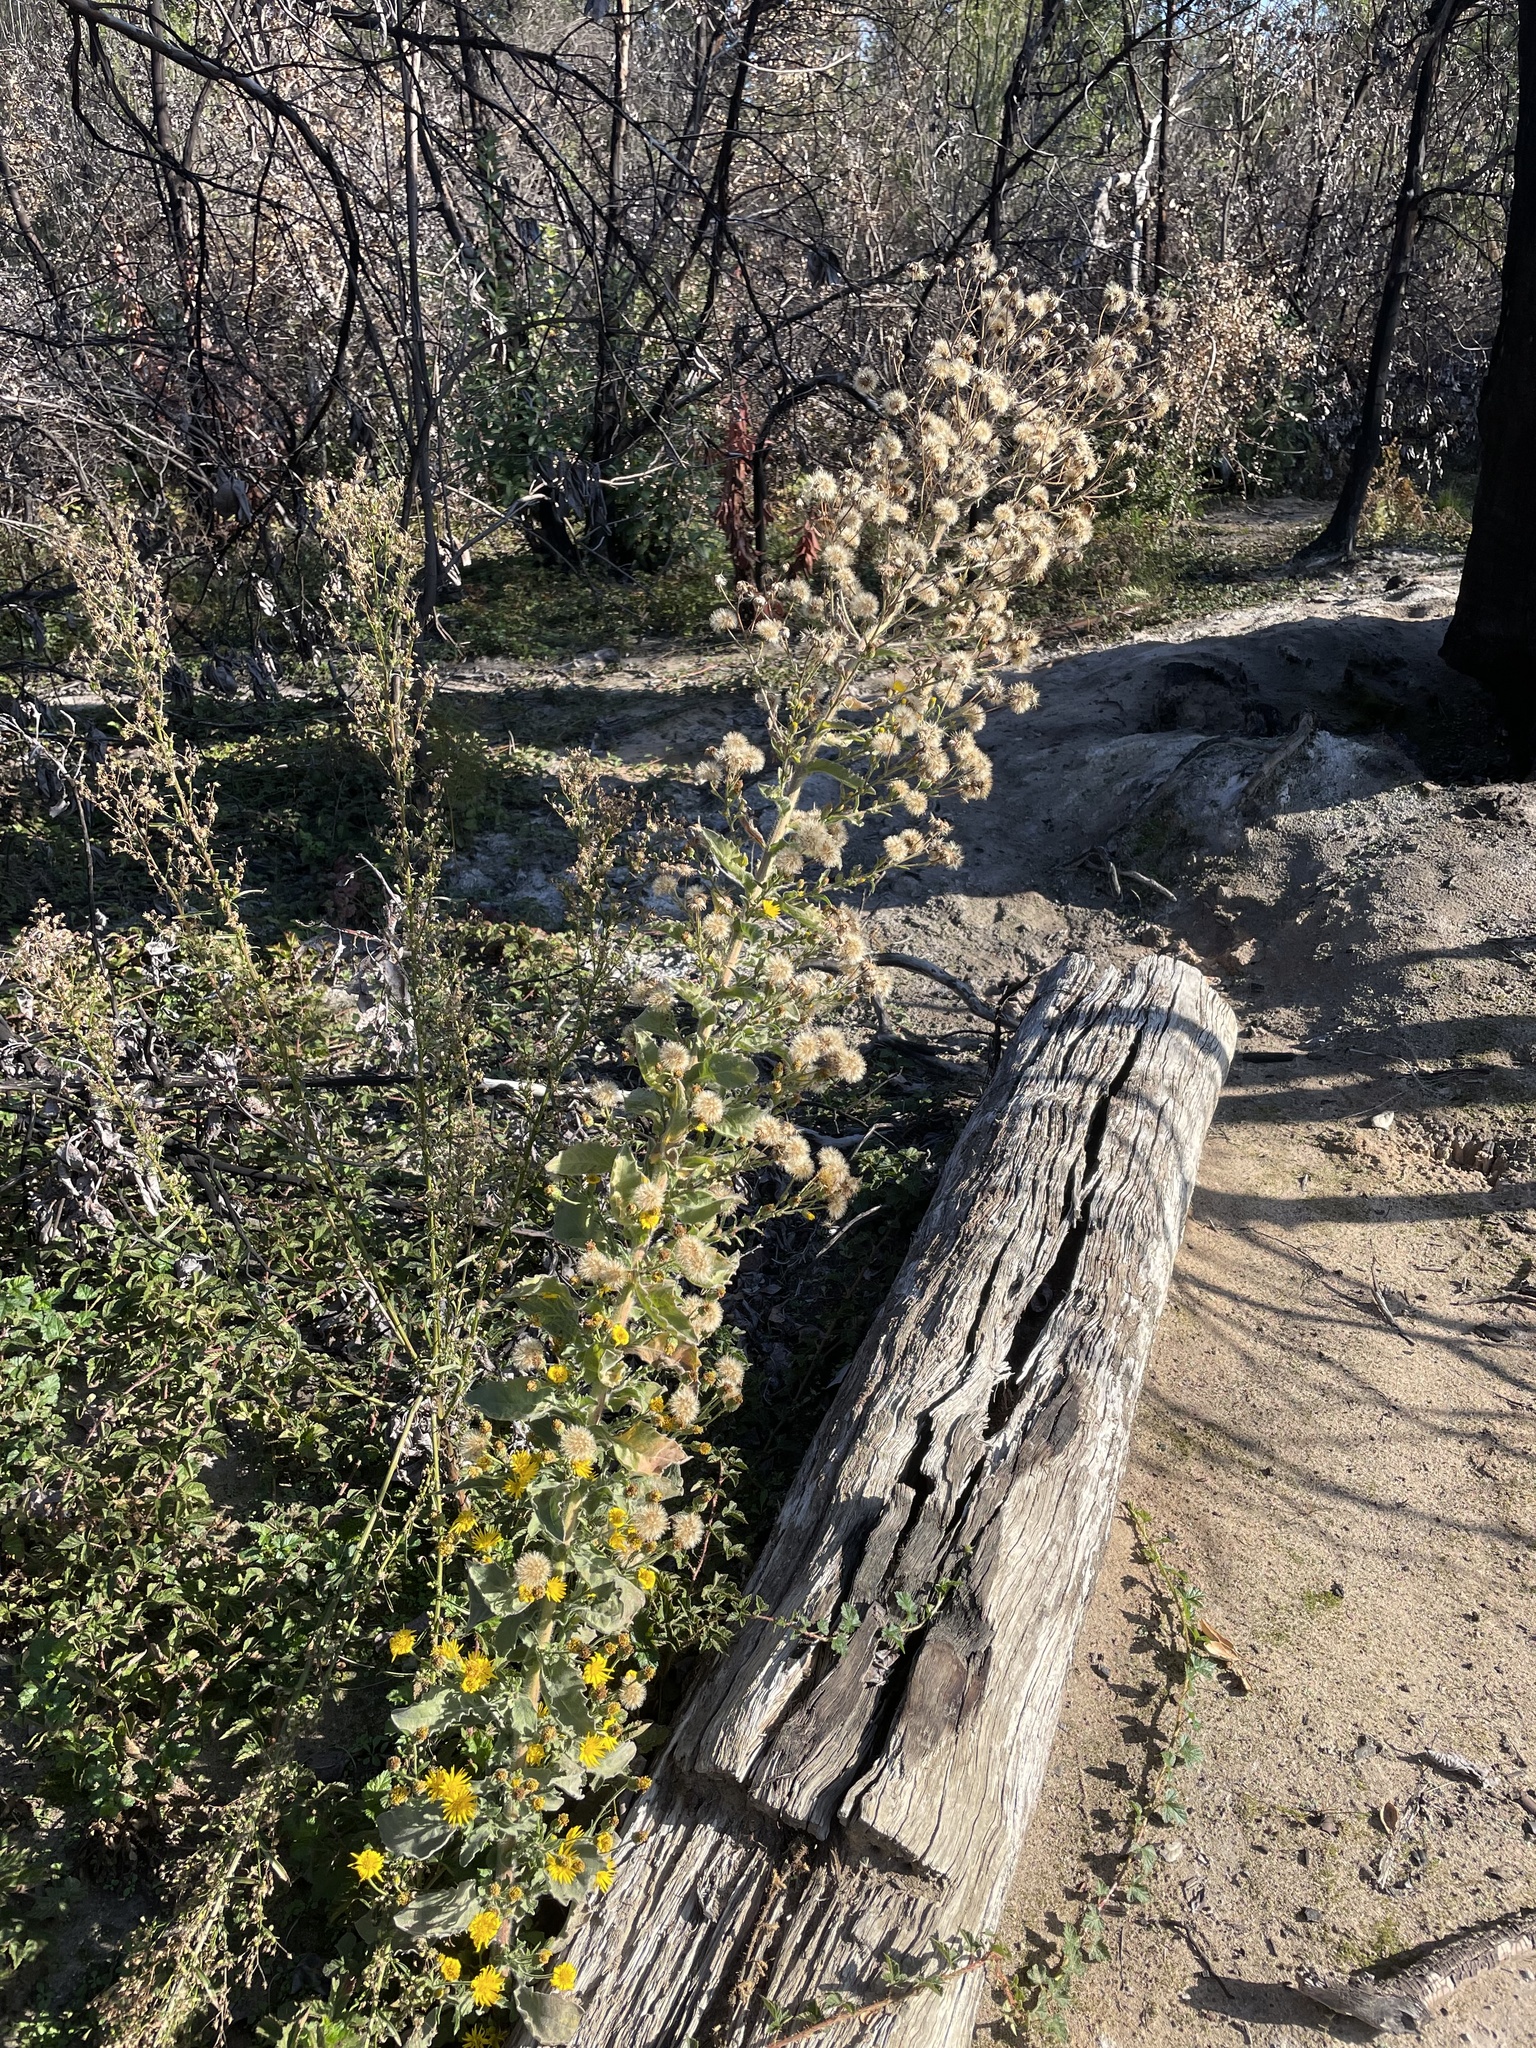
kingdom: Plantae
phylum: Tracheophyta
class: Magnoliopsida
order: Asterales
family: Asteraceae
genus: Heterotheca
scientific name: Heterotheca grandiflora
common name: Telegraphweed
